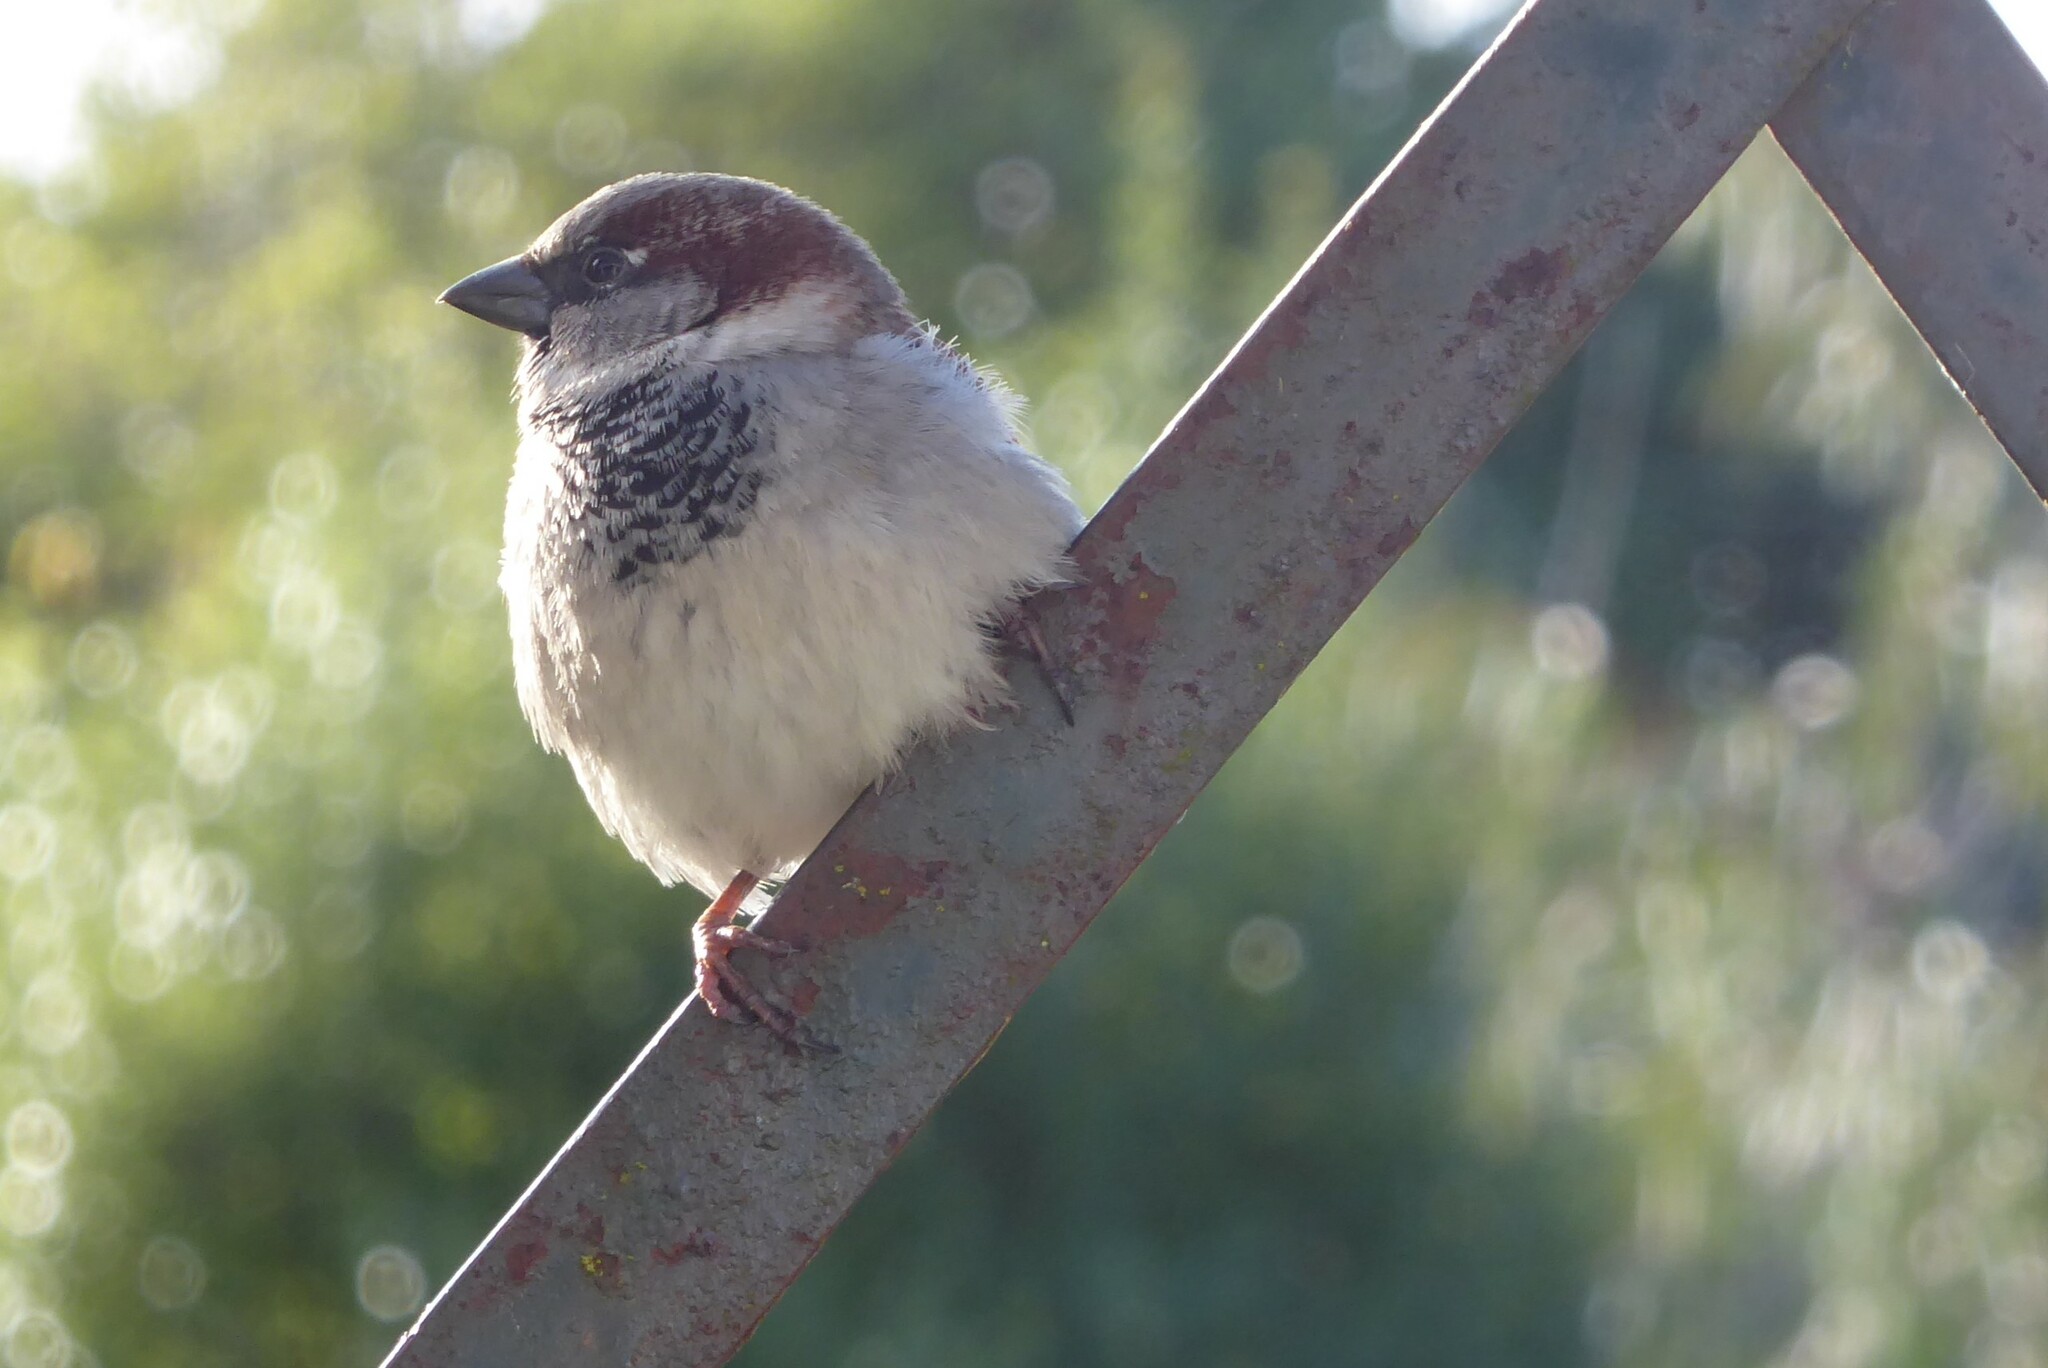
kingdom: Animalia
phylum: Chordata
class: Aves
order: Passeriformes
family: Passeridae
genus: Passer
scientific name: Passer domesticus
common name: House sparrow
